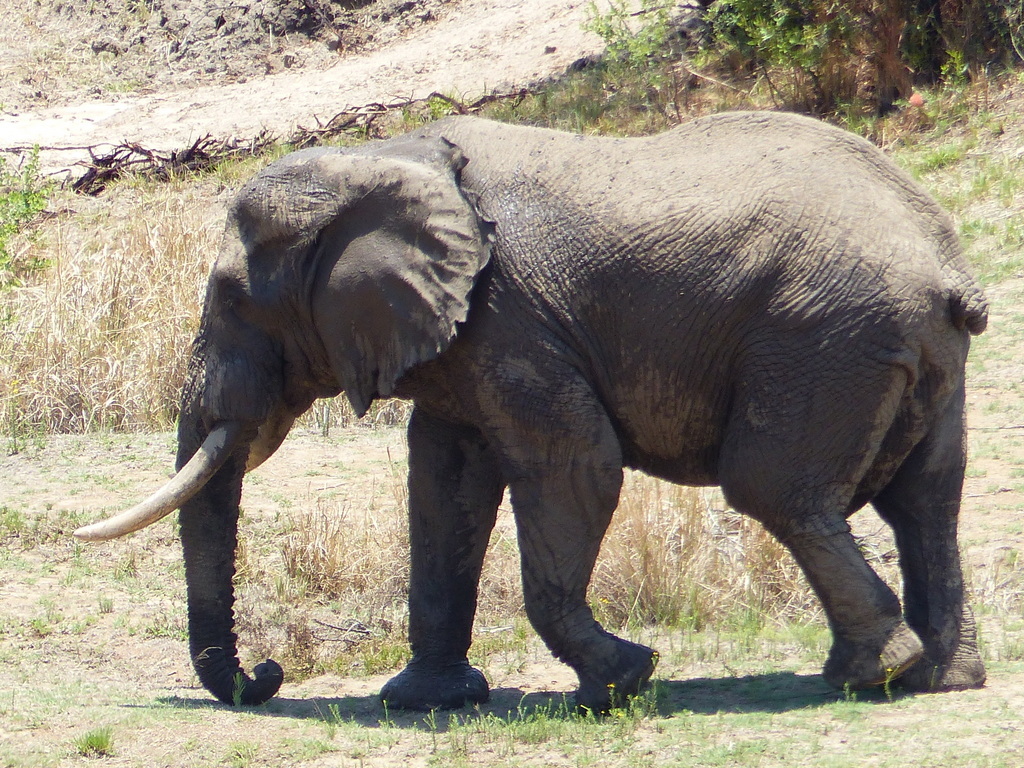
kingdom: Animalia
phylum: Chordata
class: Mammalia
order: Proboscidea
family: Elephantidae
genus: Loxodonta
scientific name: Loxodonta africana
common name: African elephant
